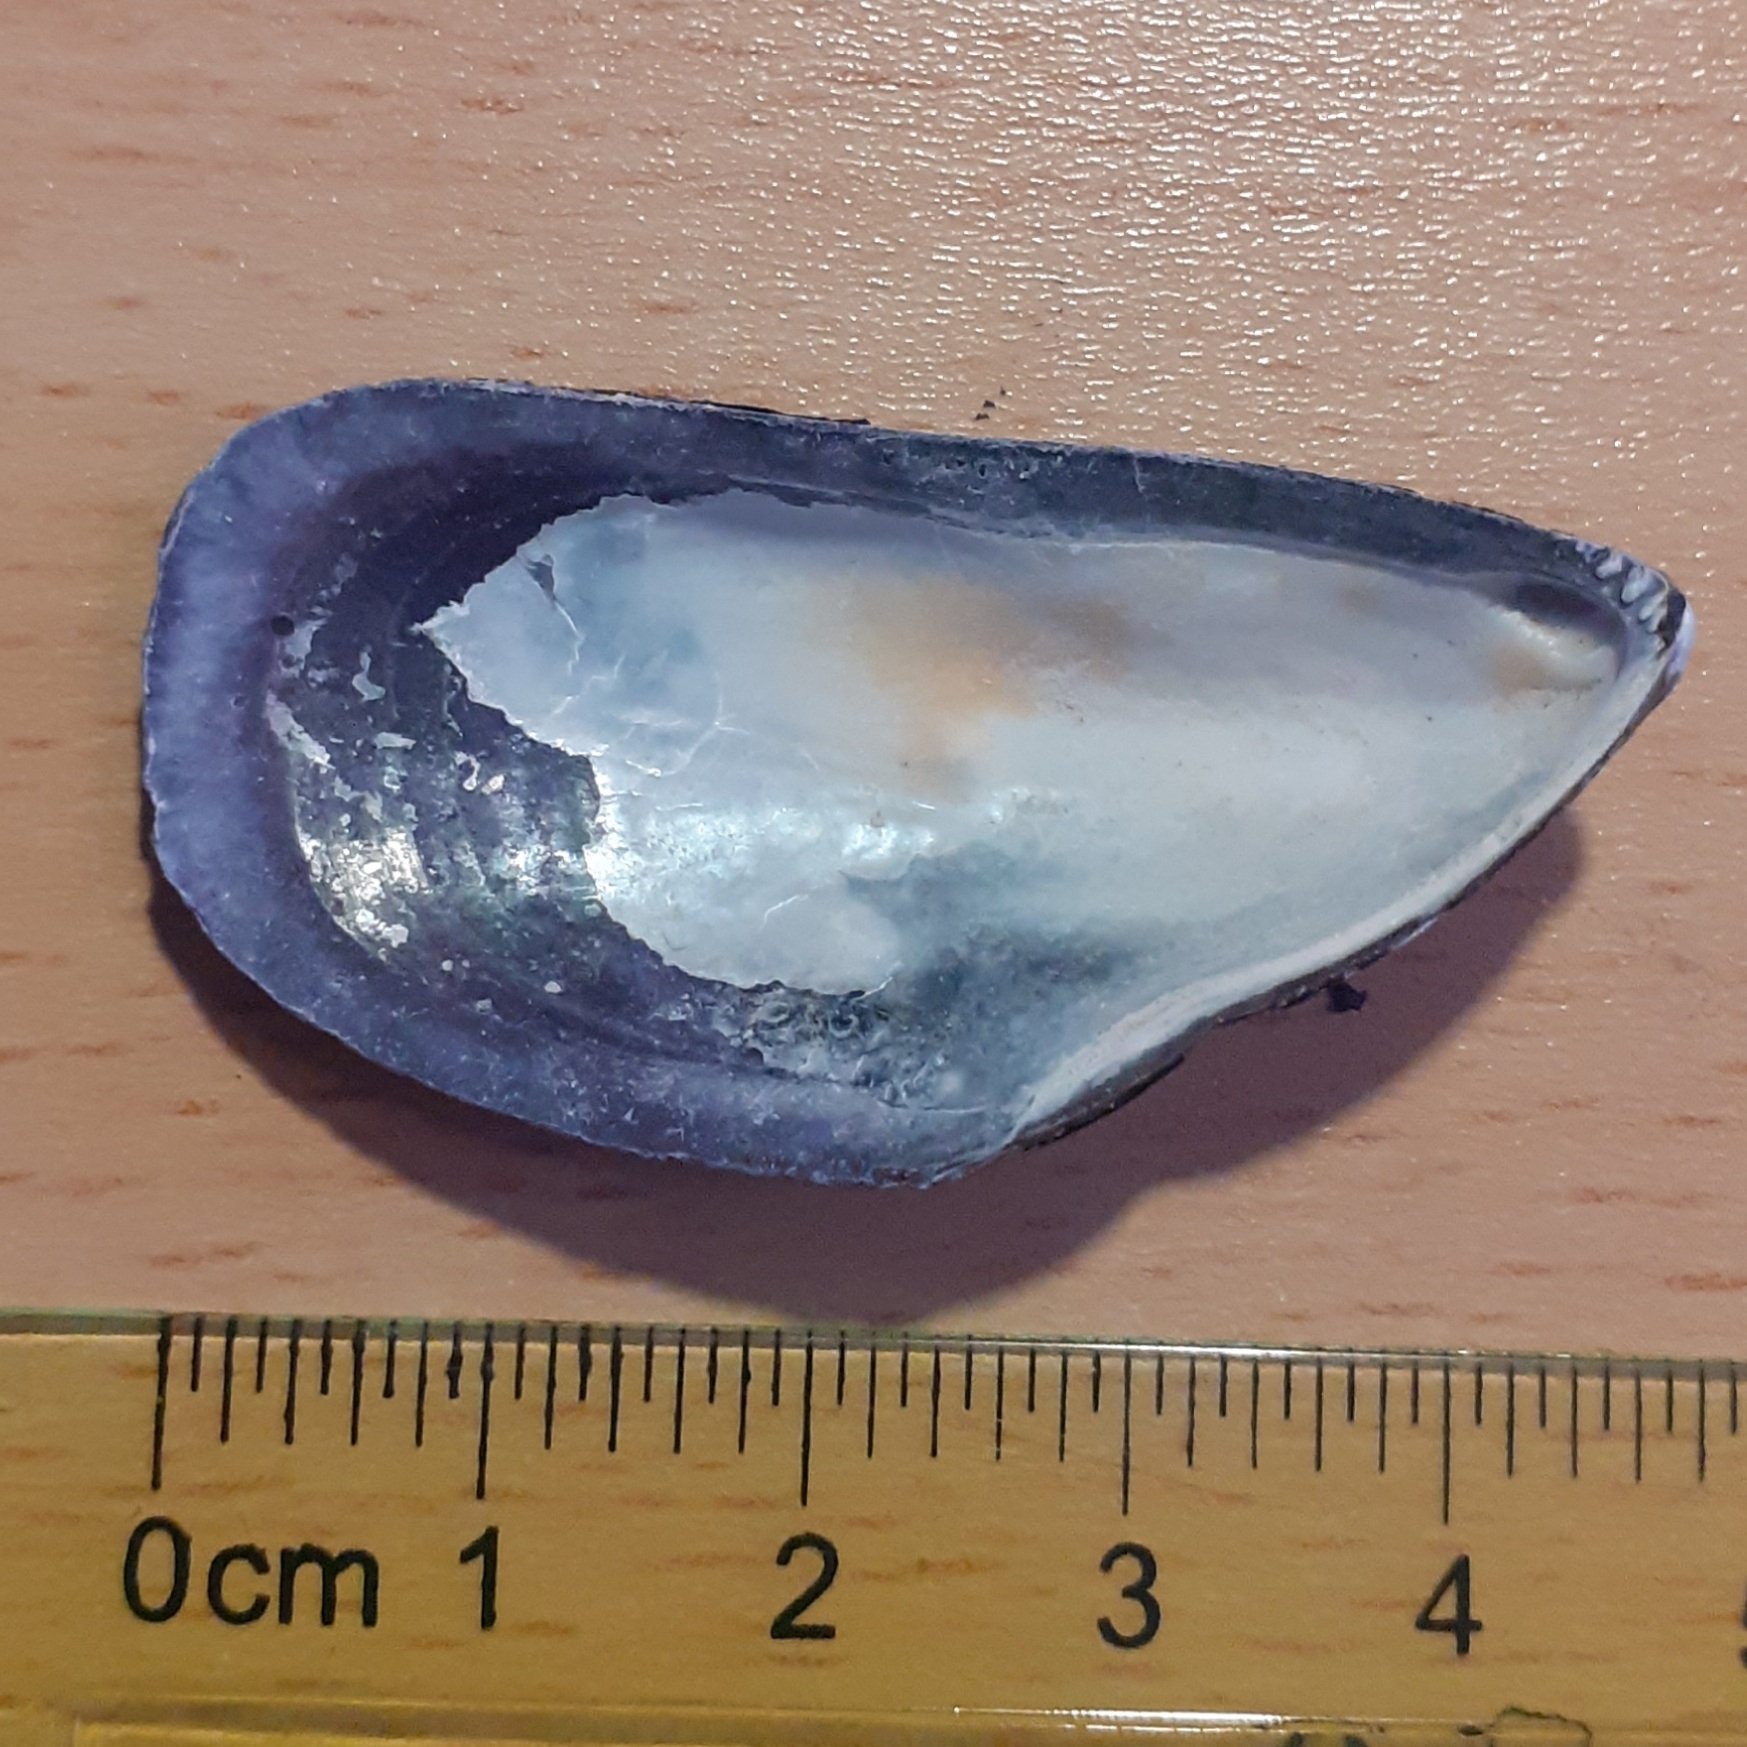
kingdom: Animalia
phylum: Mollusca
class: Bivalvia
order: Mytilida
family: Mytilidae
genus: Mytilus
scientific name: Mytilus edulis
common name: Blue mussel
